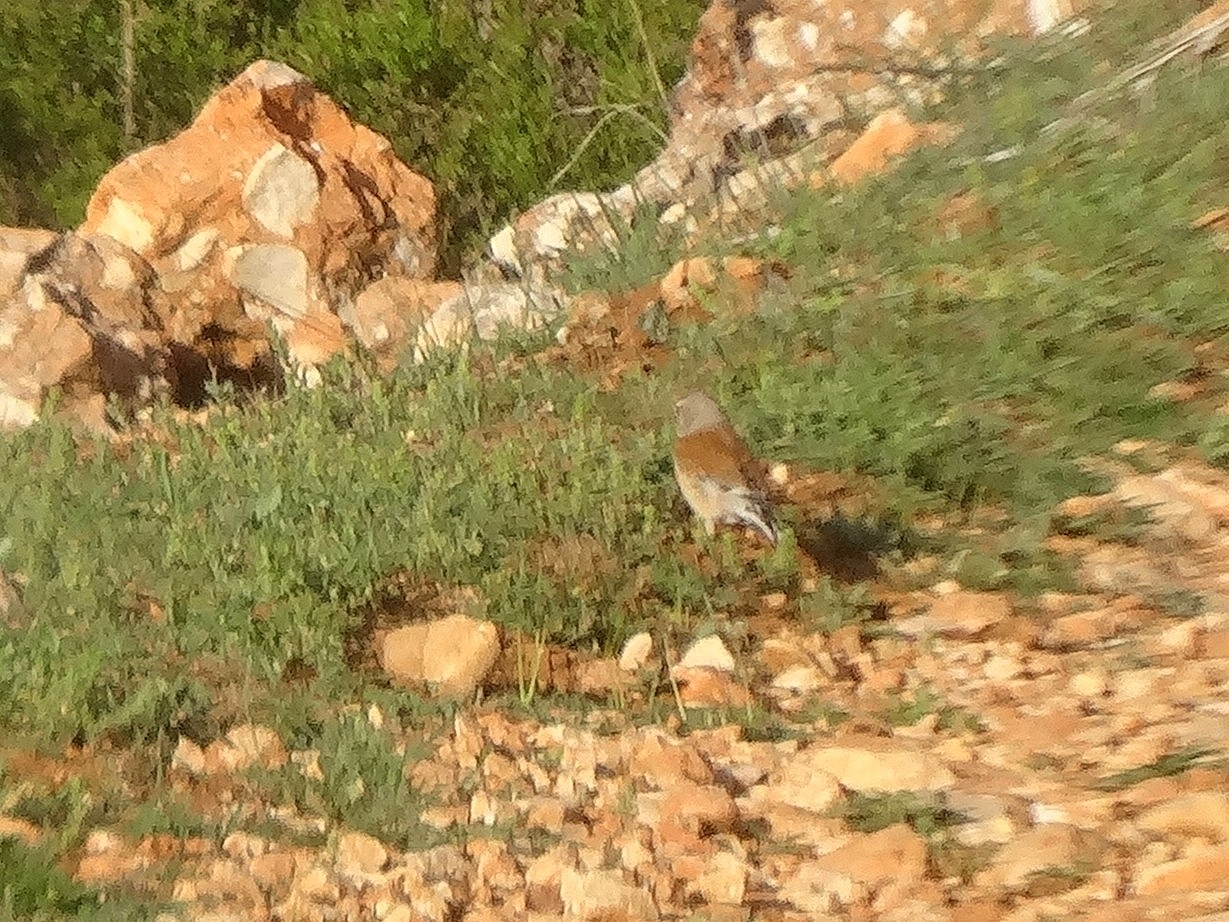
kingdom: Animalia
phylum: Chordata
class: Aves
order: Passeriformes
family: Fringillidae
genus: Linaria
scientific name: Linaria cannabina
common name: Common linnet
